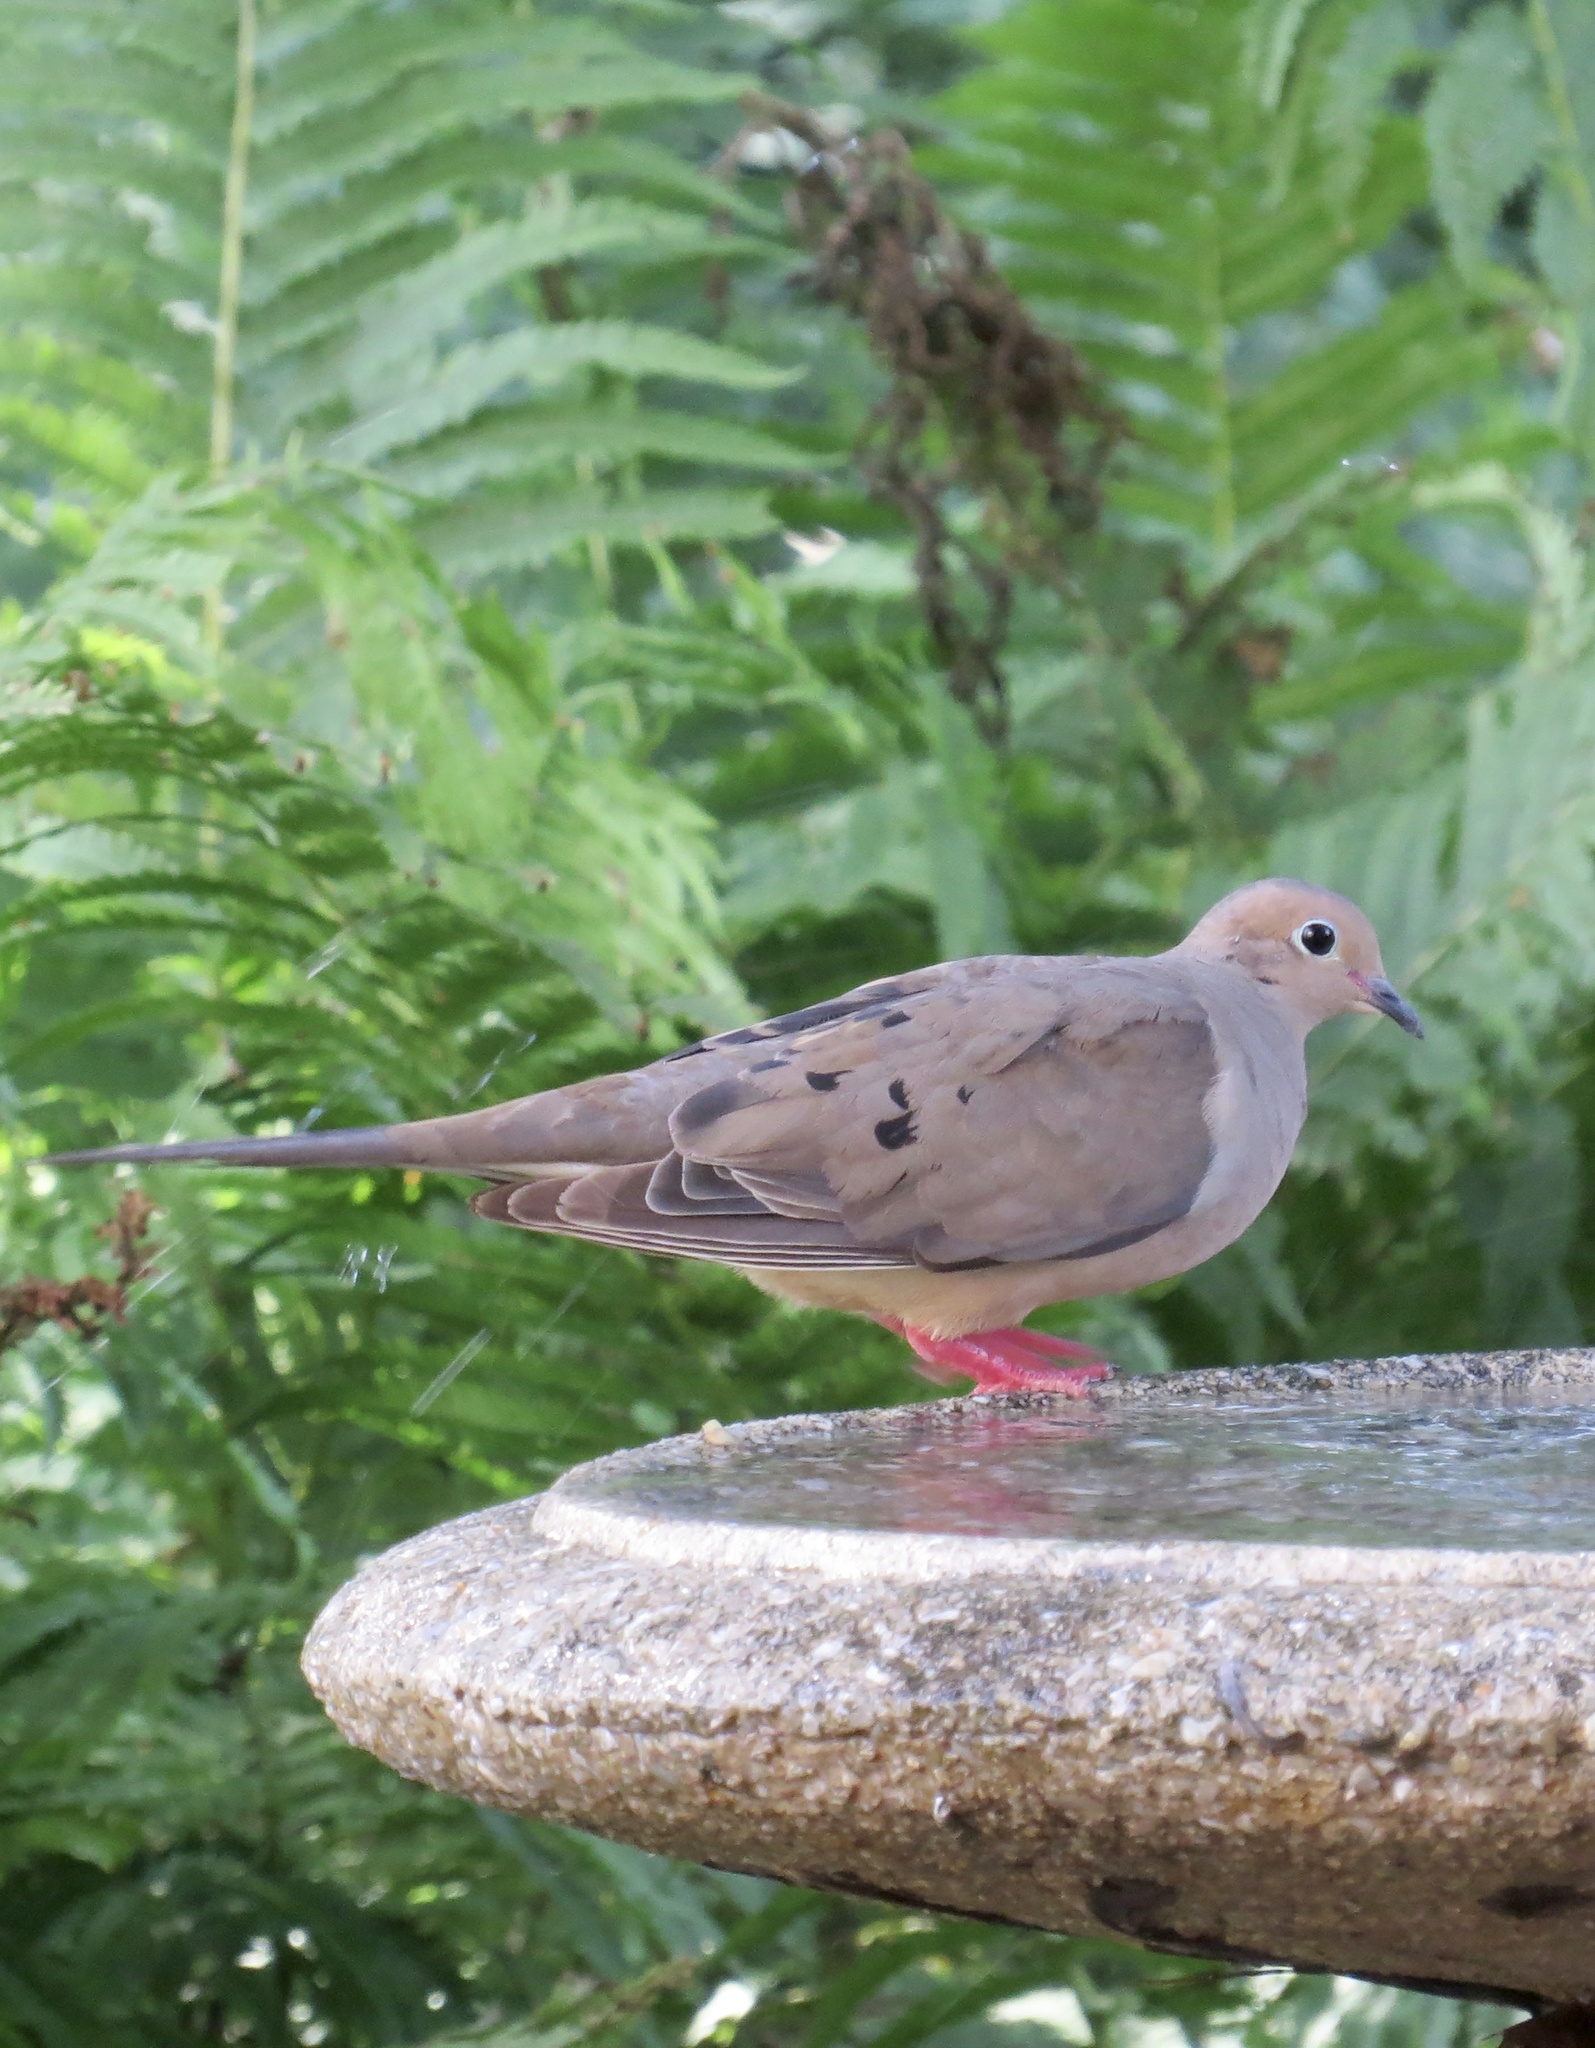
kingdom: Animalia
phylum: Chordata
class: Aves
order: Columbiformes
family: Columbidae
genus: Zenaida
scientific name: Zenaida macroura
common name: Mourning dove
